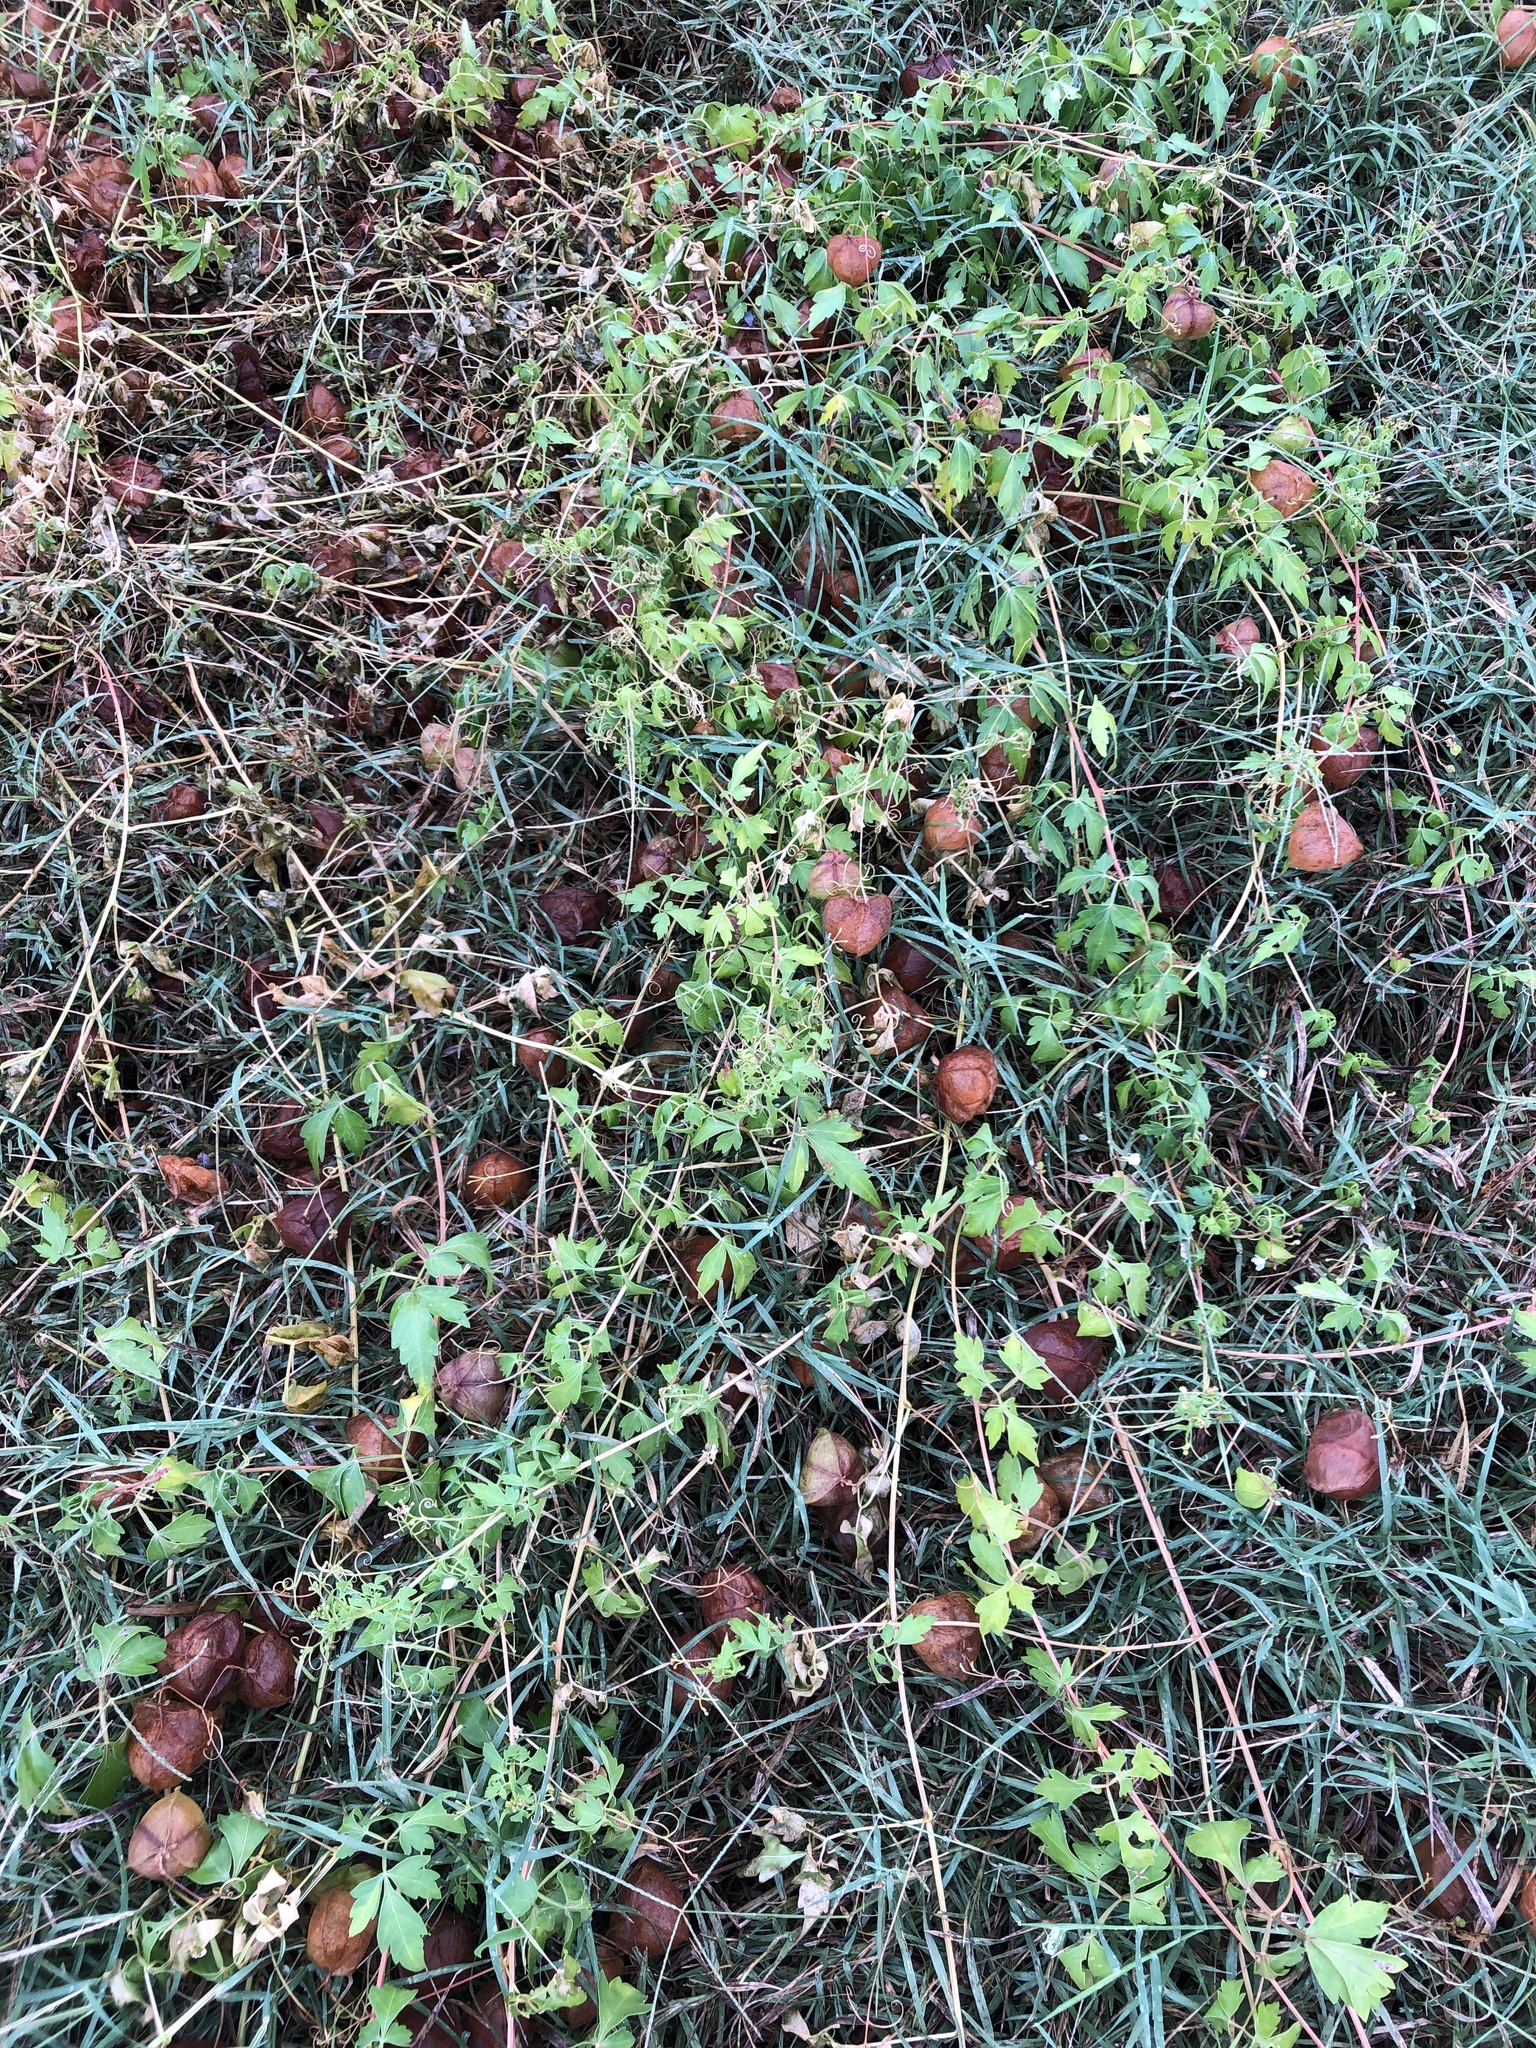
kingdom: Plantae
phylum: Tracheophyta
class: Magnoliopsida
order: Sapindales
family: Sapindaceae
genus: Cardiospermum
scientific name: Cardiospermum halicacabum
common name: Balloon vine
